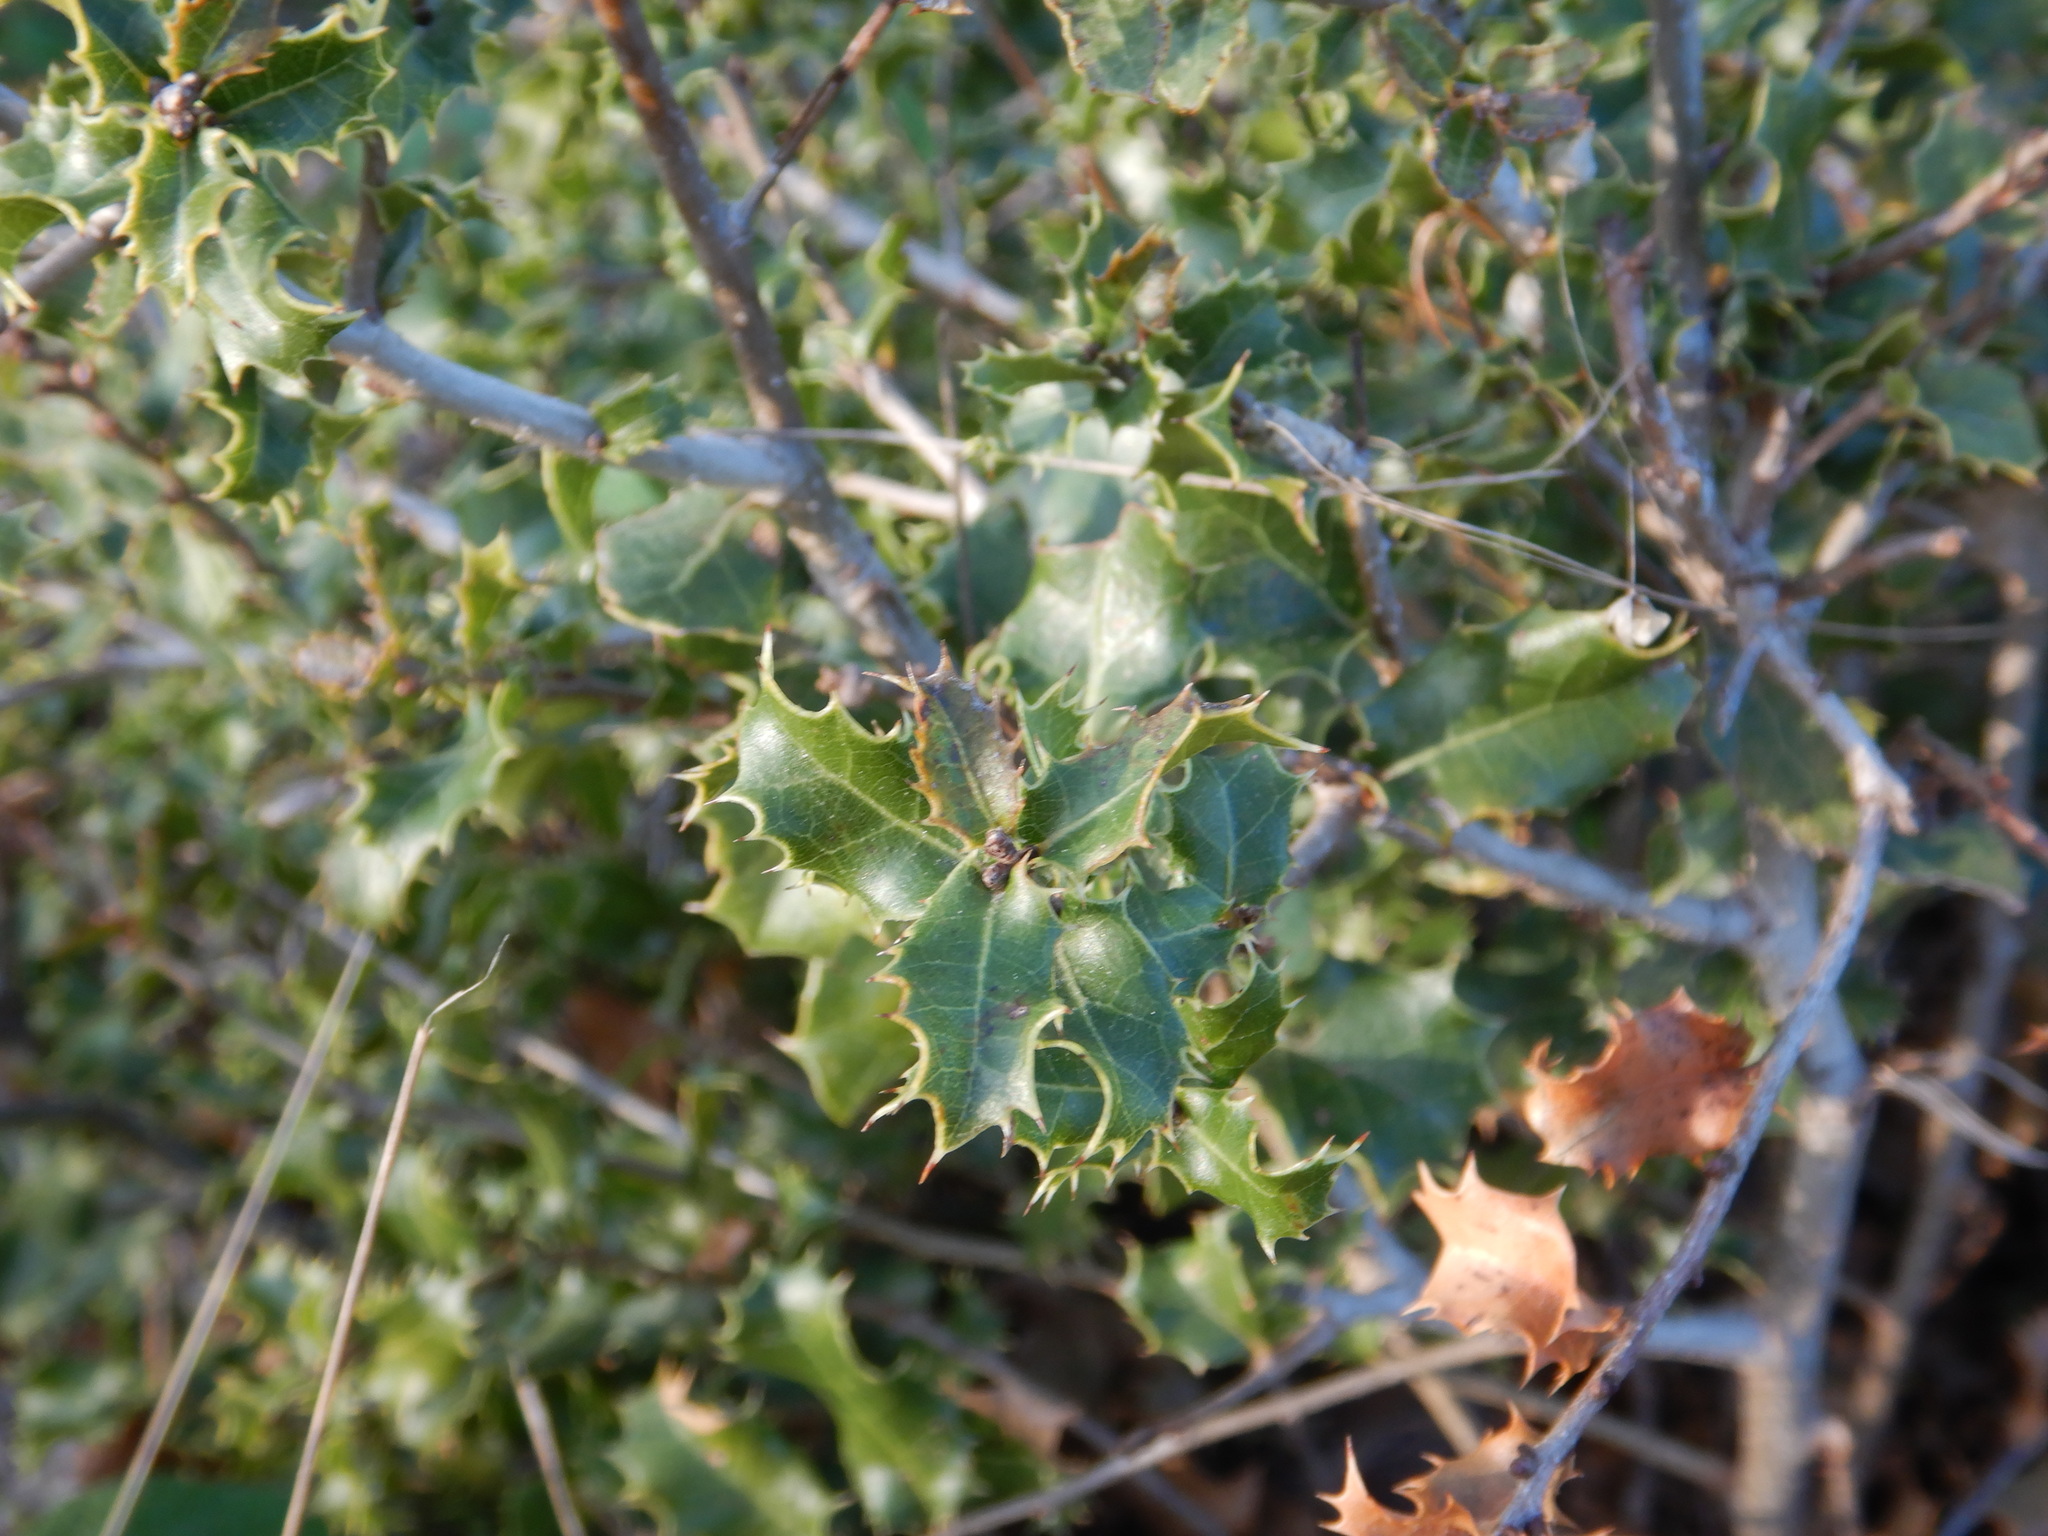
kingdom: Plantae
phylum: Tracheophyta
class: Magnoliopsida
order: Fagales
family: Fagaceae
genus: Quercus
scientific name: Quercus coccifera
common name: Kermes oak
